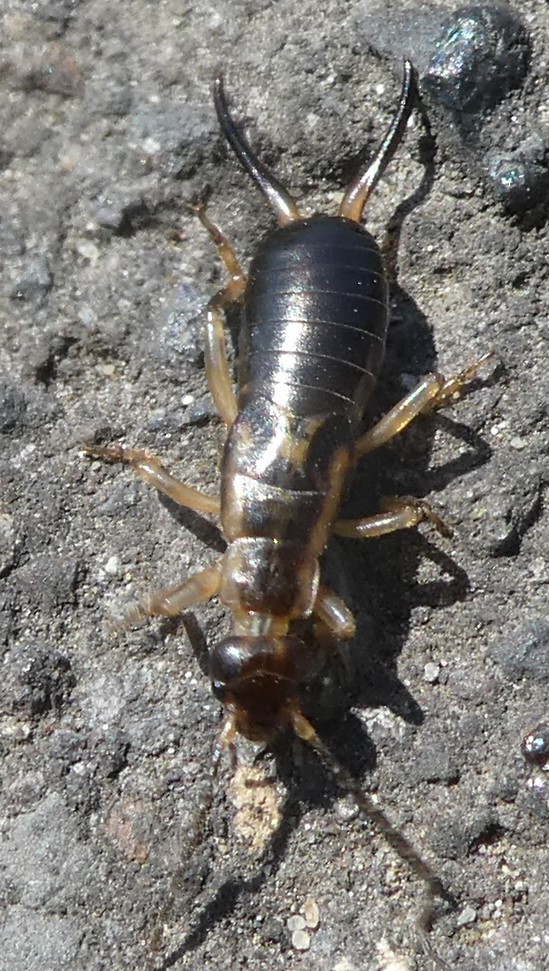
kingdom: Animalia
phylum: Arthropoda
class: Insecta
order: Dermaptera
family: Forficulidae
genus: Forficula
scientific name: Forficula
